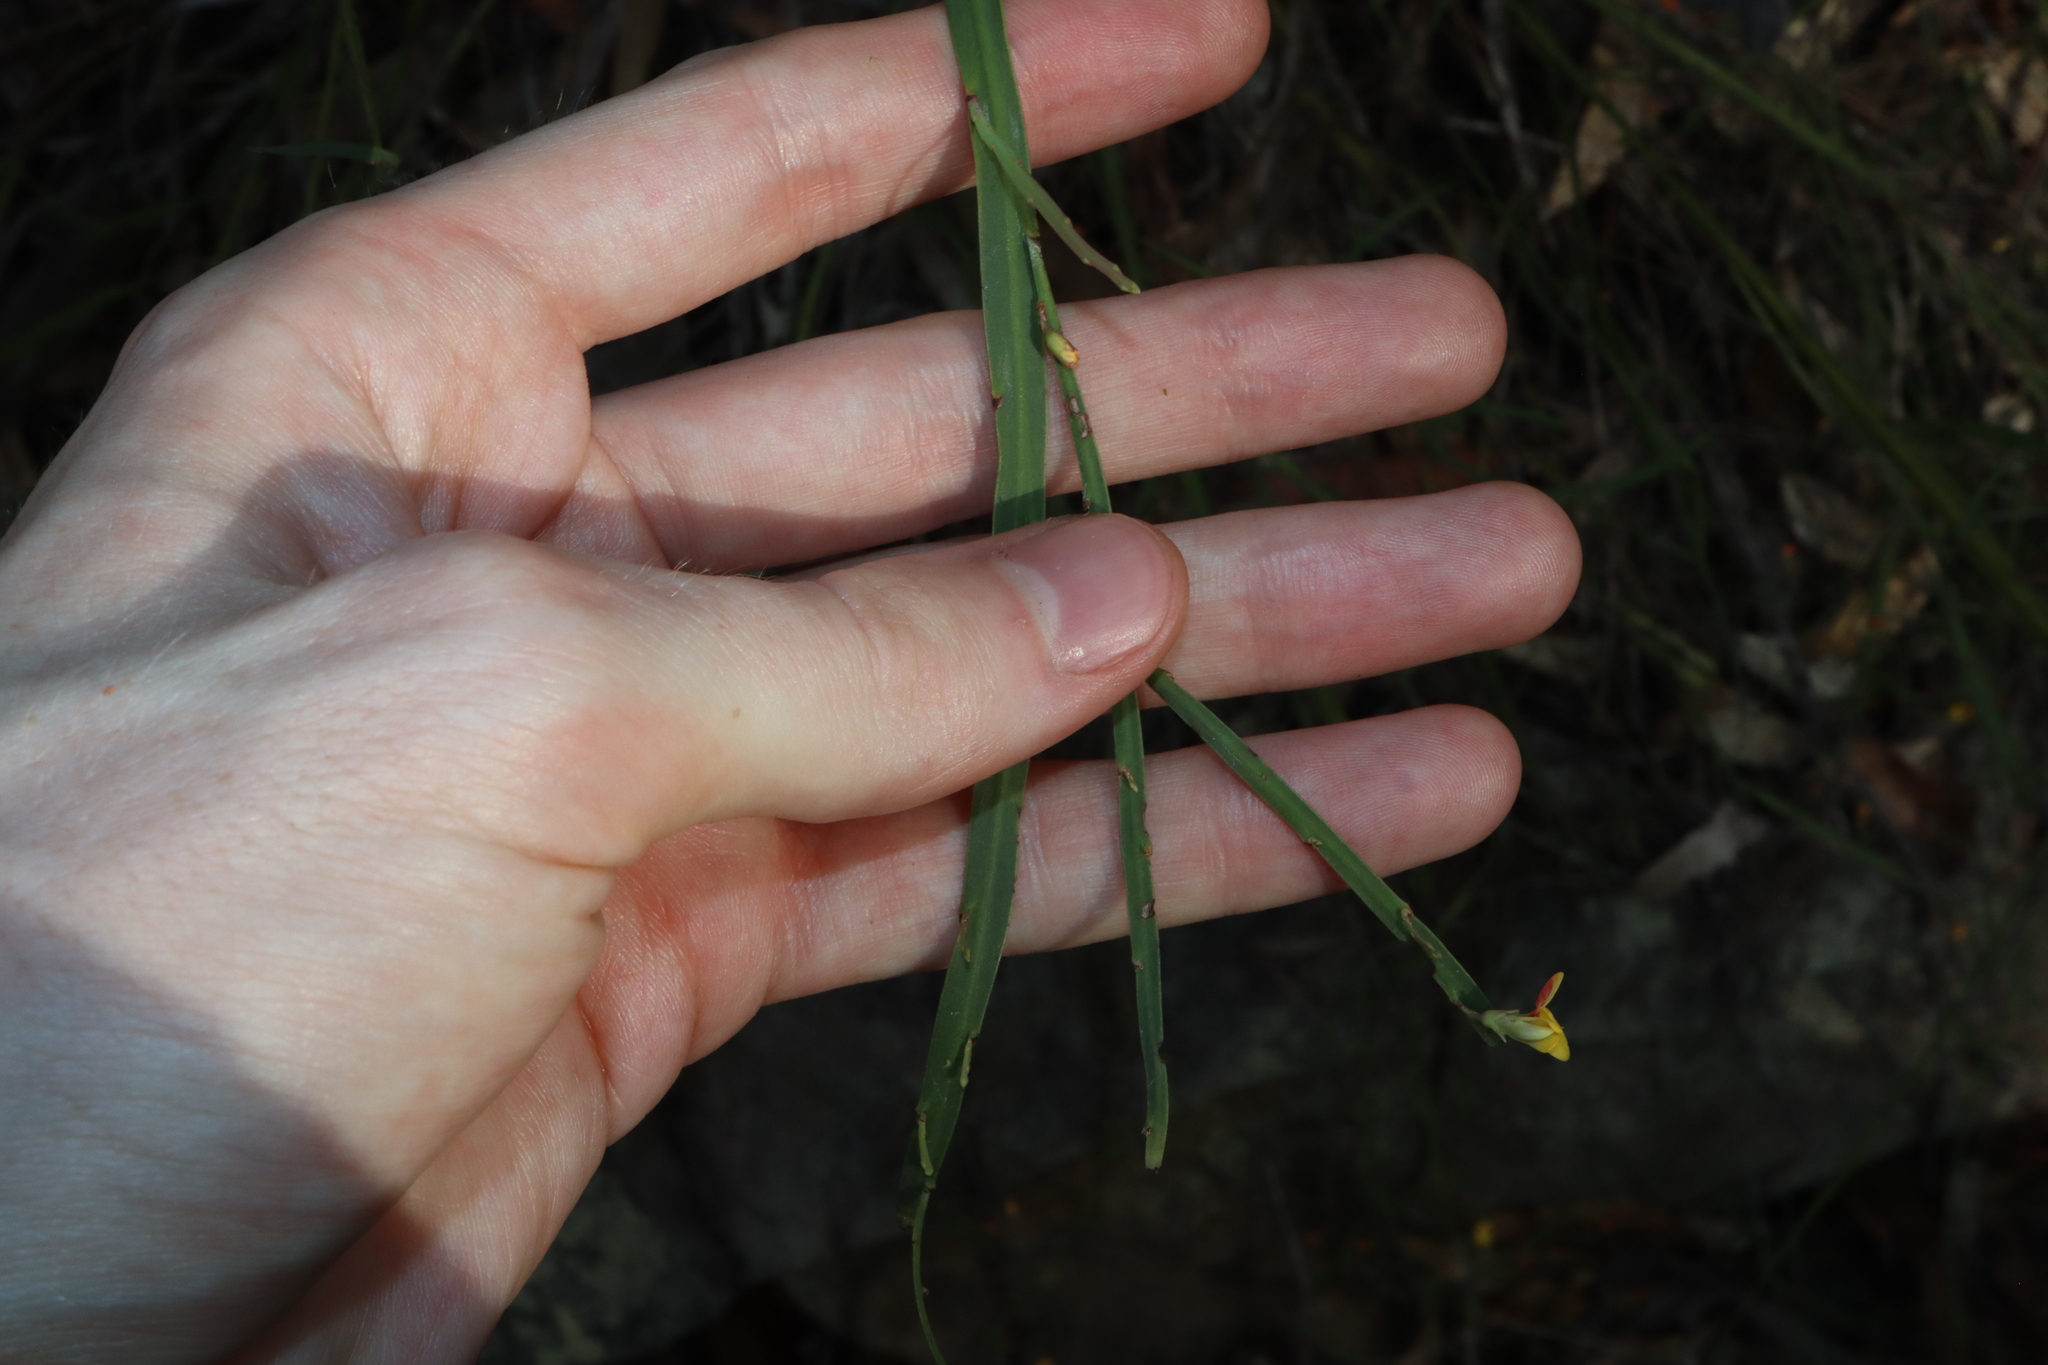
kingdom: Plantae
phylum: Tracheophyta
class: Magnoliopsida
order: Fabales
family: Fabaceae
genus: Bossiaea
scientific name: Bossiaea ensata
